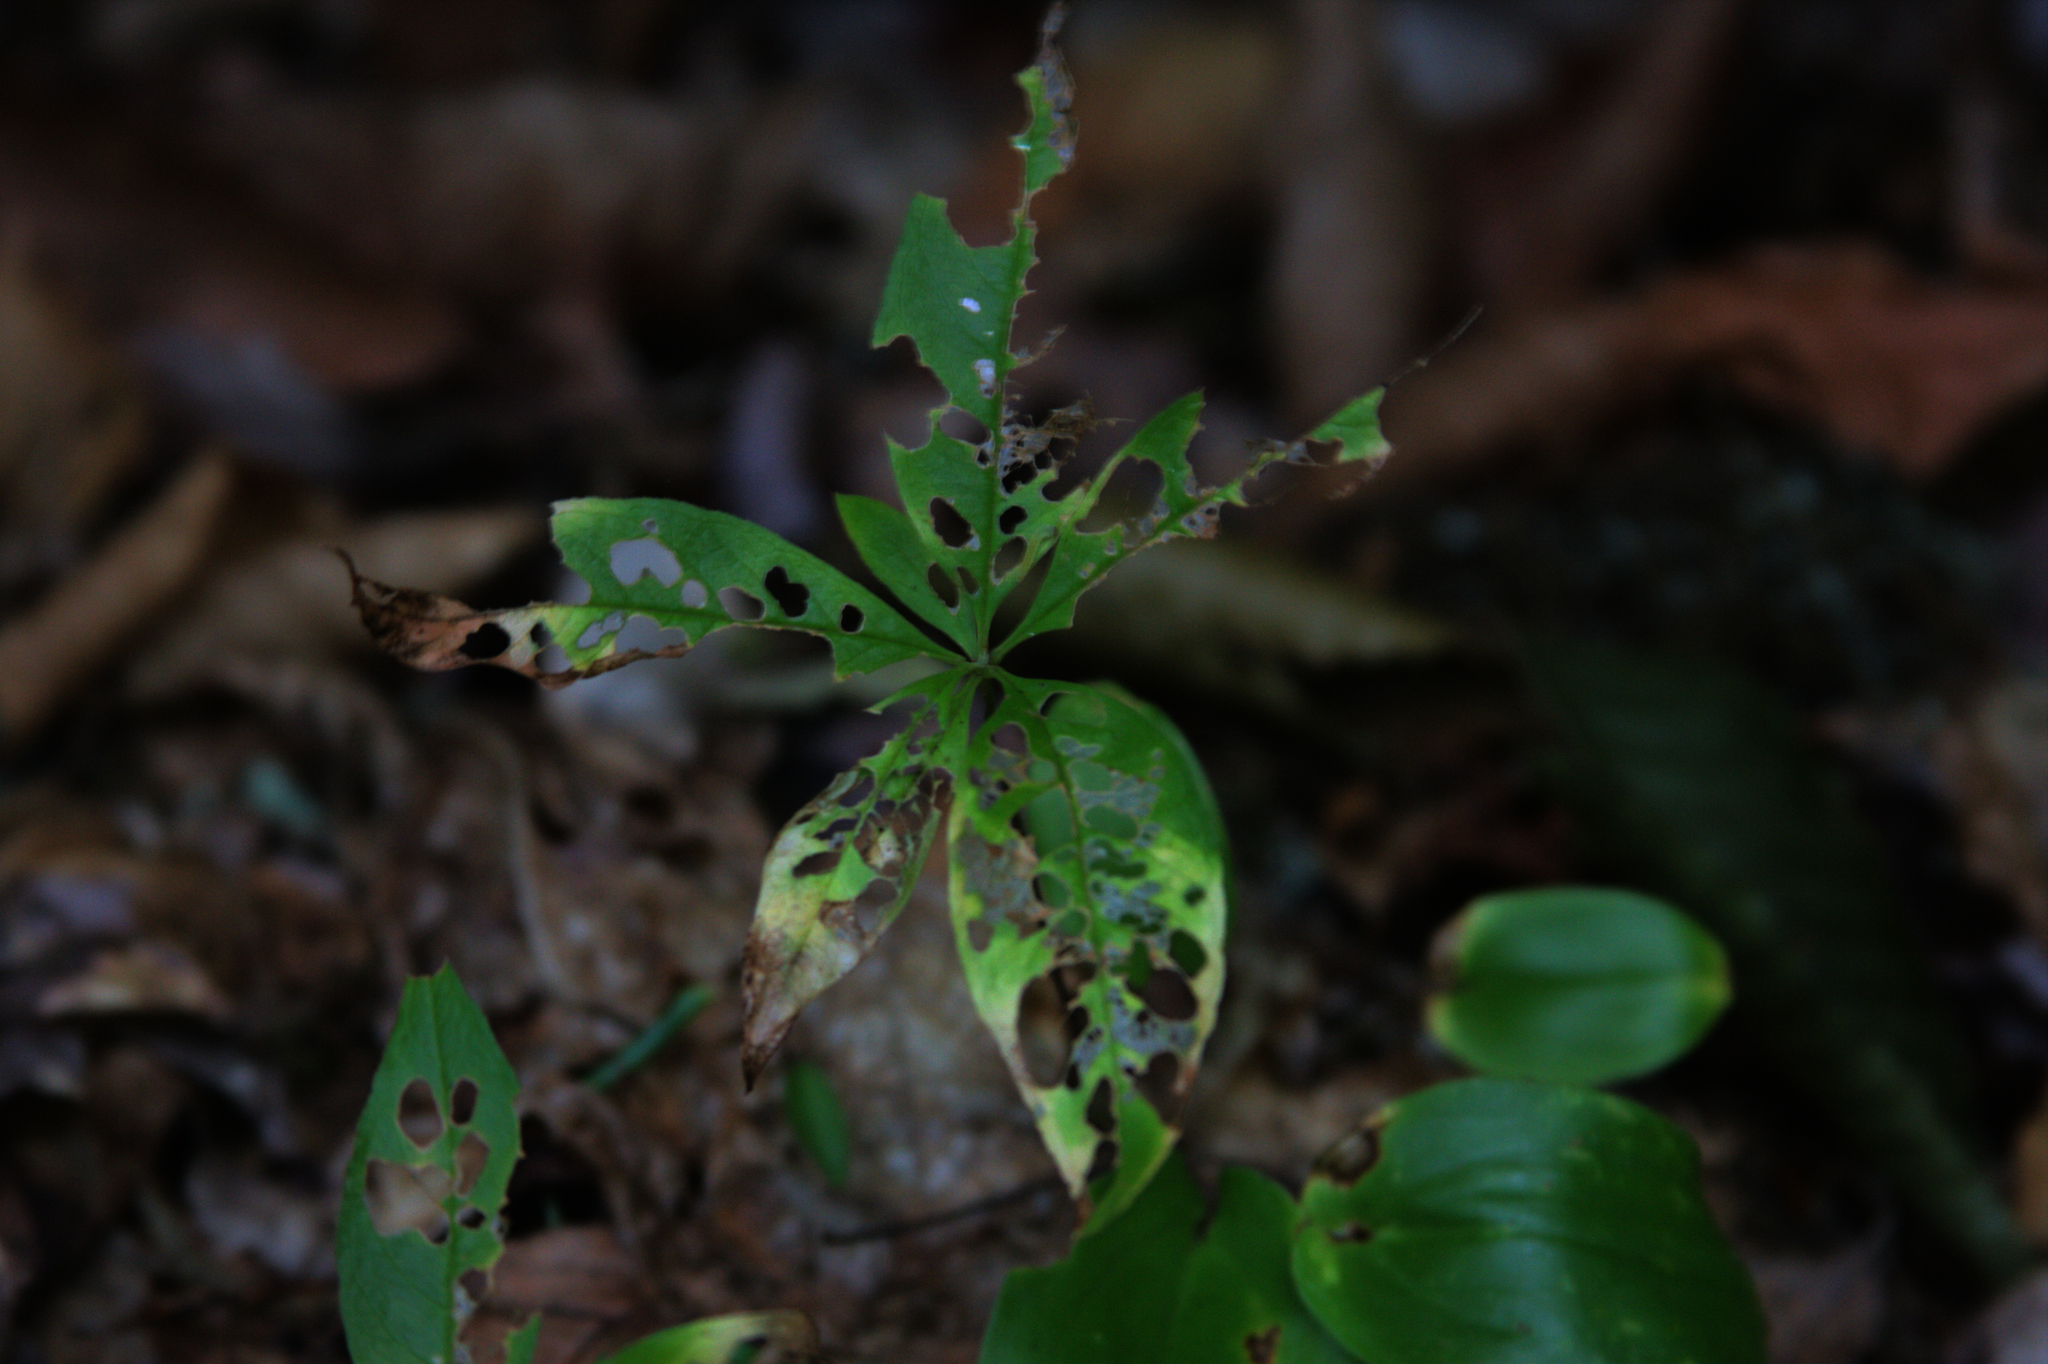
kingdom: Plantae
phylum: Tracheophyta
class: Magnoliopsida
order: Ericales
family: Primulaceae
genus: Lysimachia
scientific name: Lysimachia borealis
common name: American starflower
